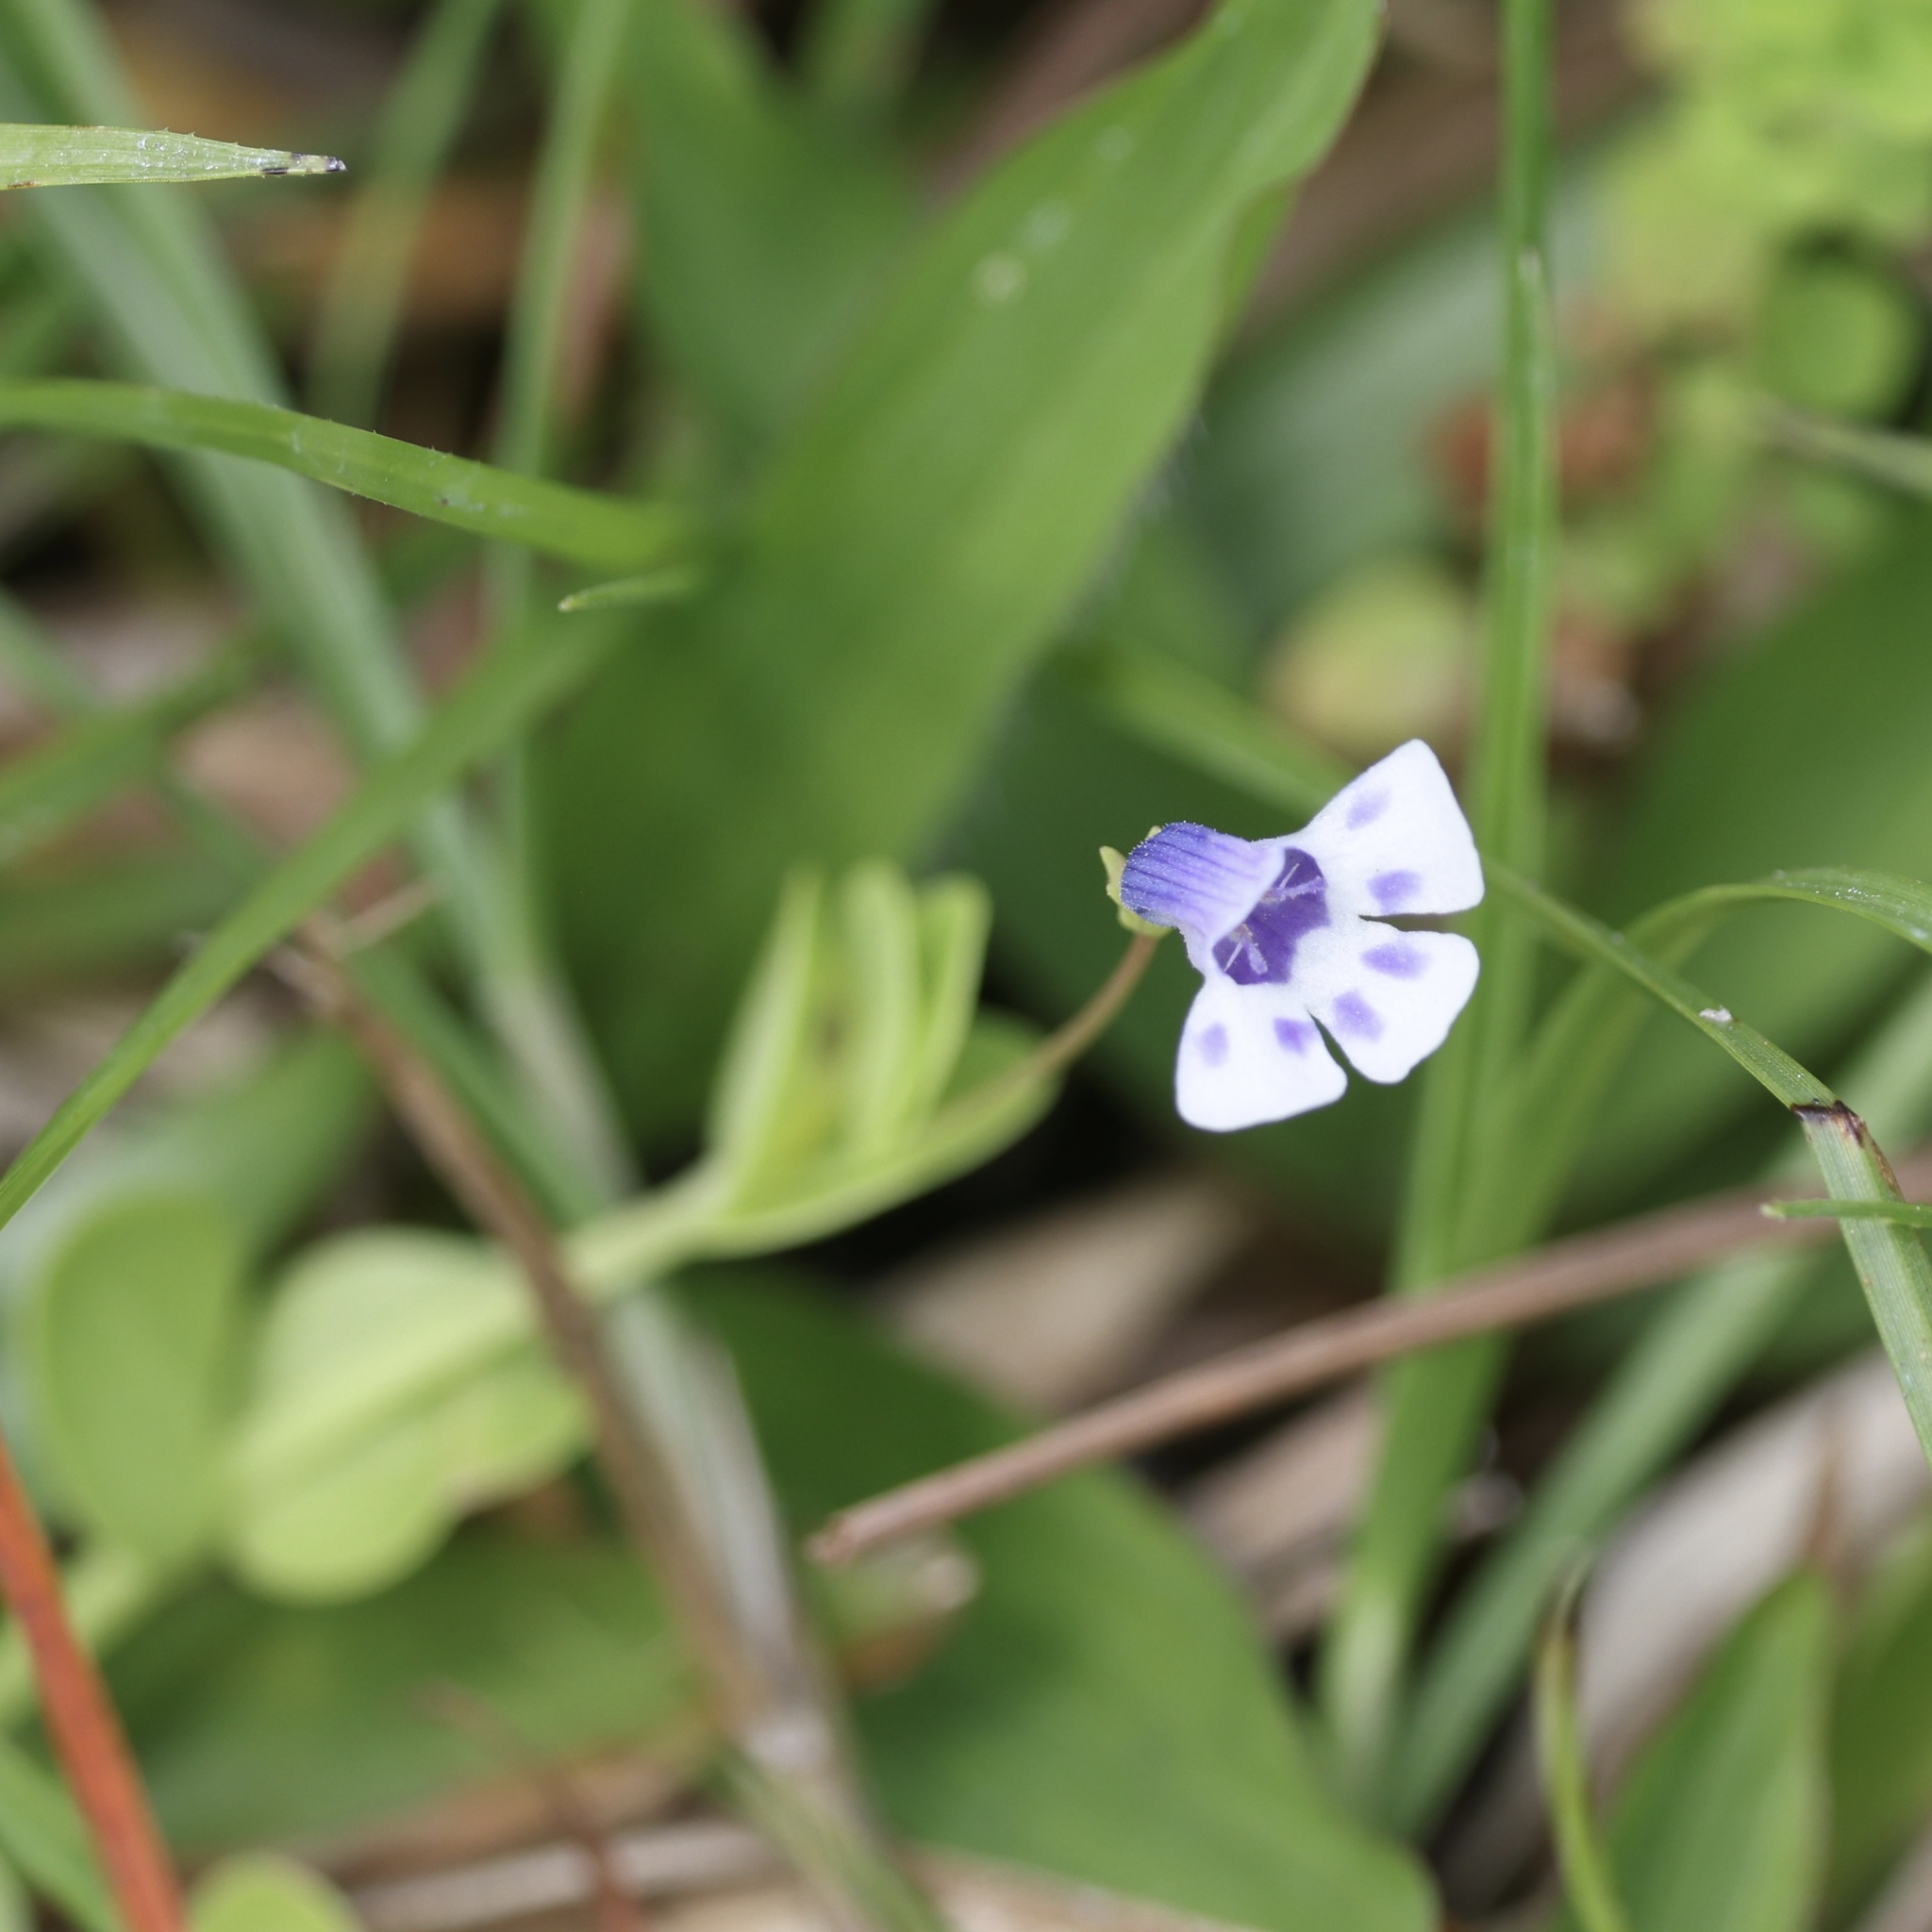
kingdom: Plantae
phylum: Tracheophyta
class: Magnoliopsida
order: Lamiales
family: Linderniaceae
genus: Lindernia
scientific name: Lindernia grandiflora
